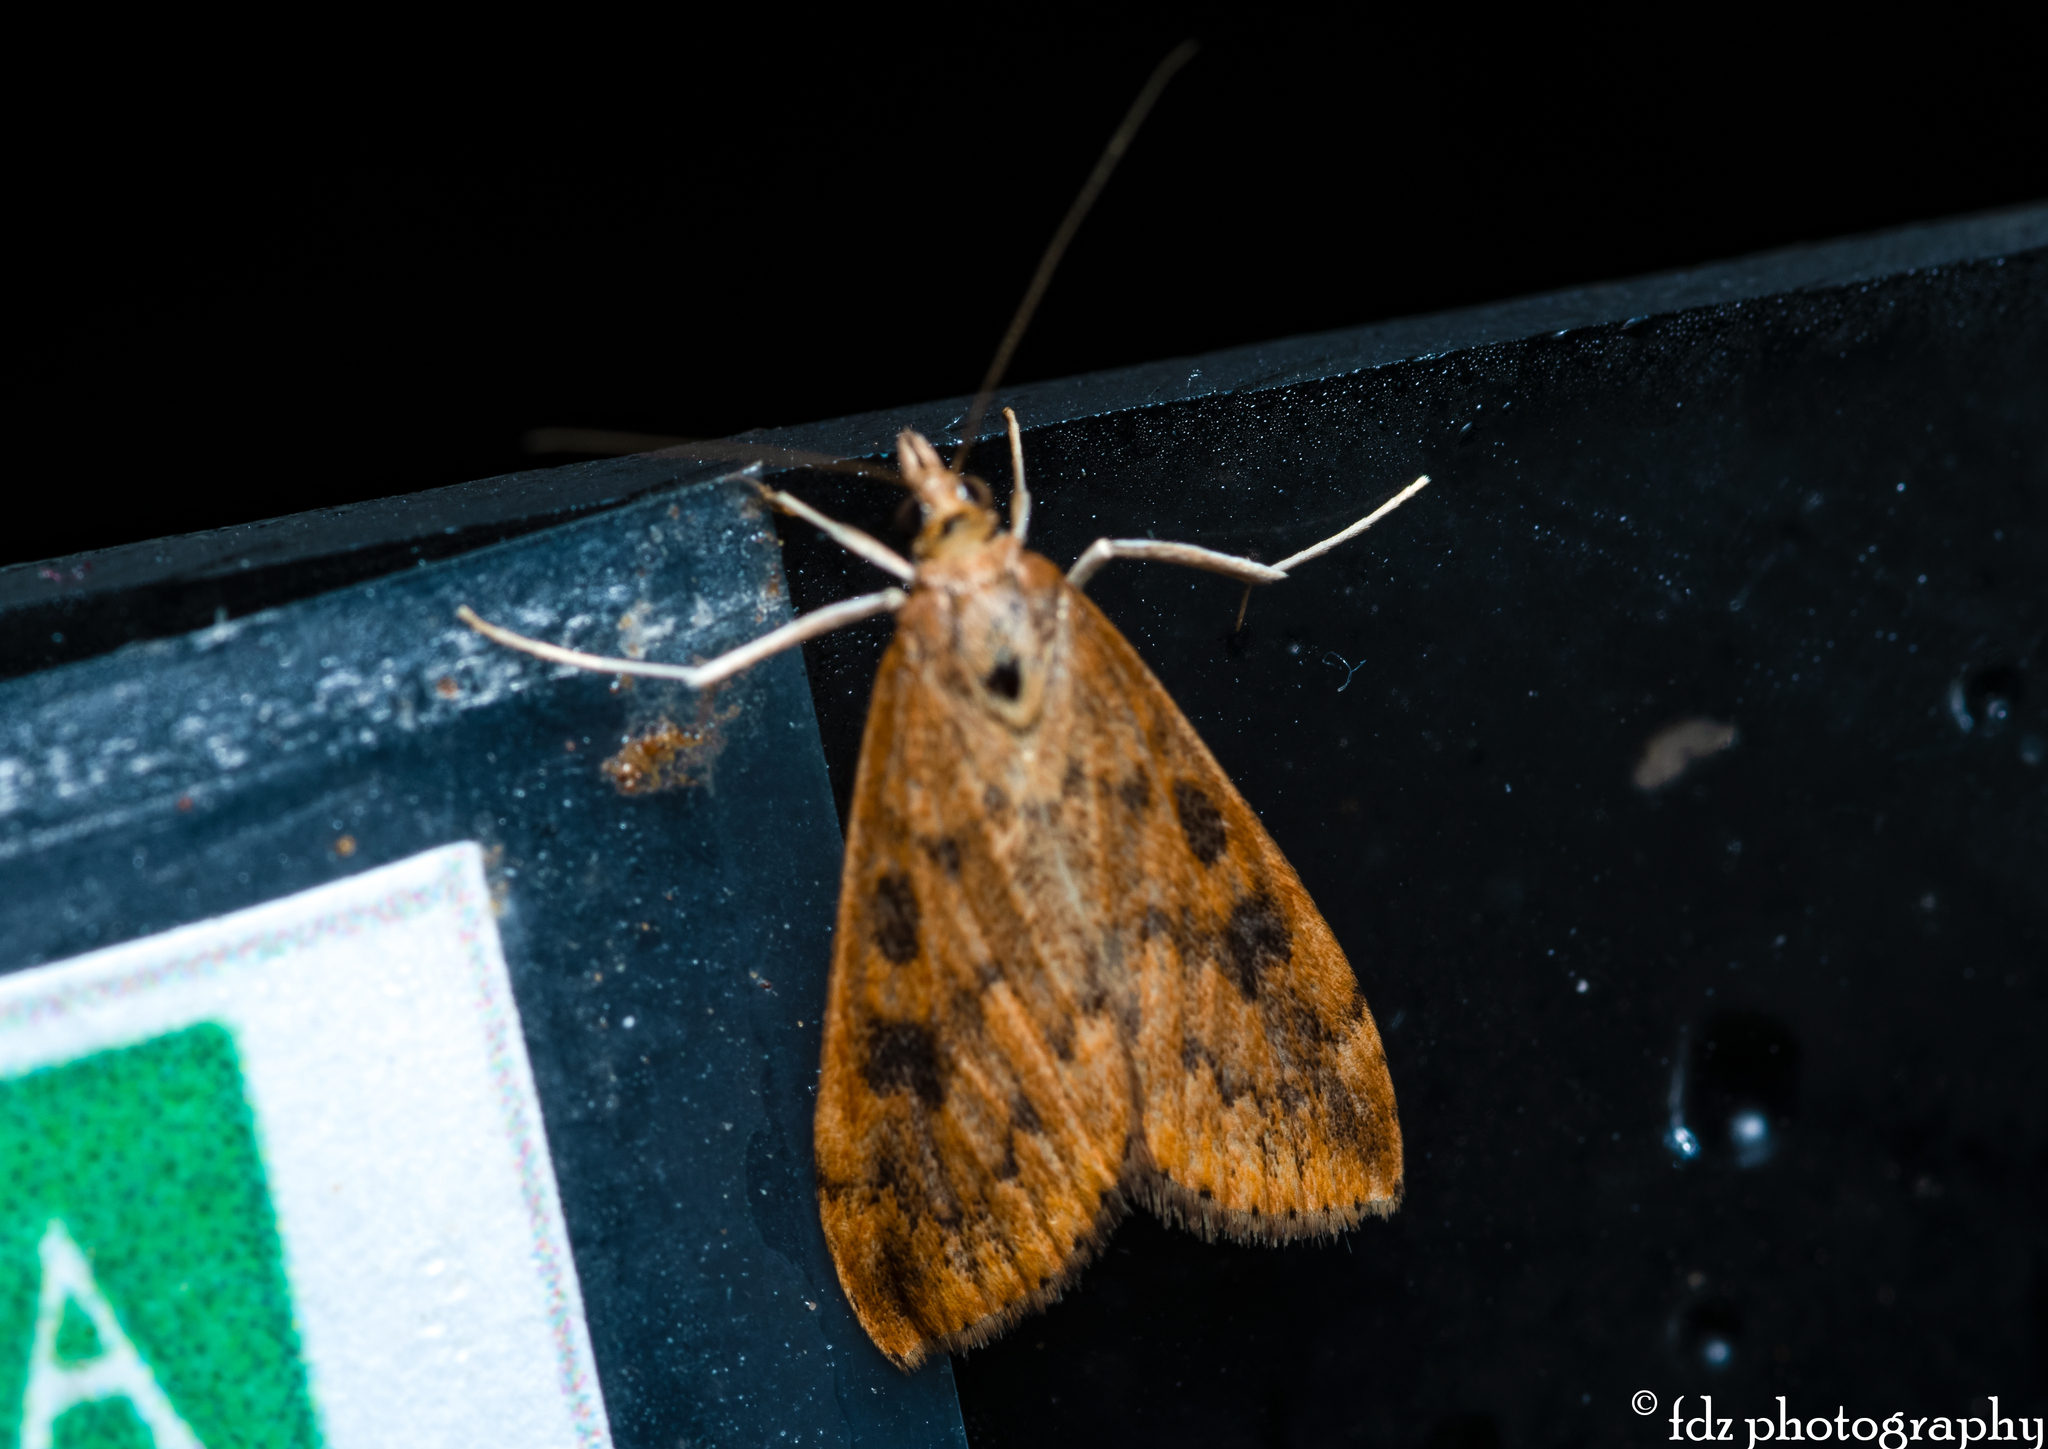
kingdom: Animalia
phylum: Arthropoda
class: Insecta
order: Lepidoptera
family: Crambidae
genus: Udea
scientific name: Udea ferrugalis
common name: Rusty dot
